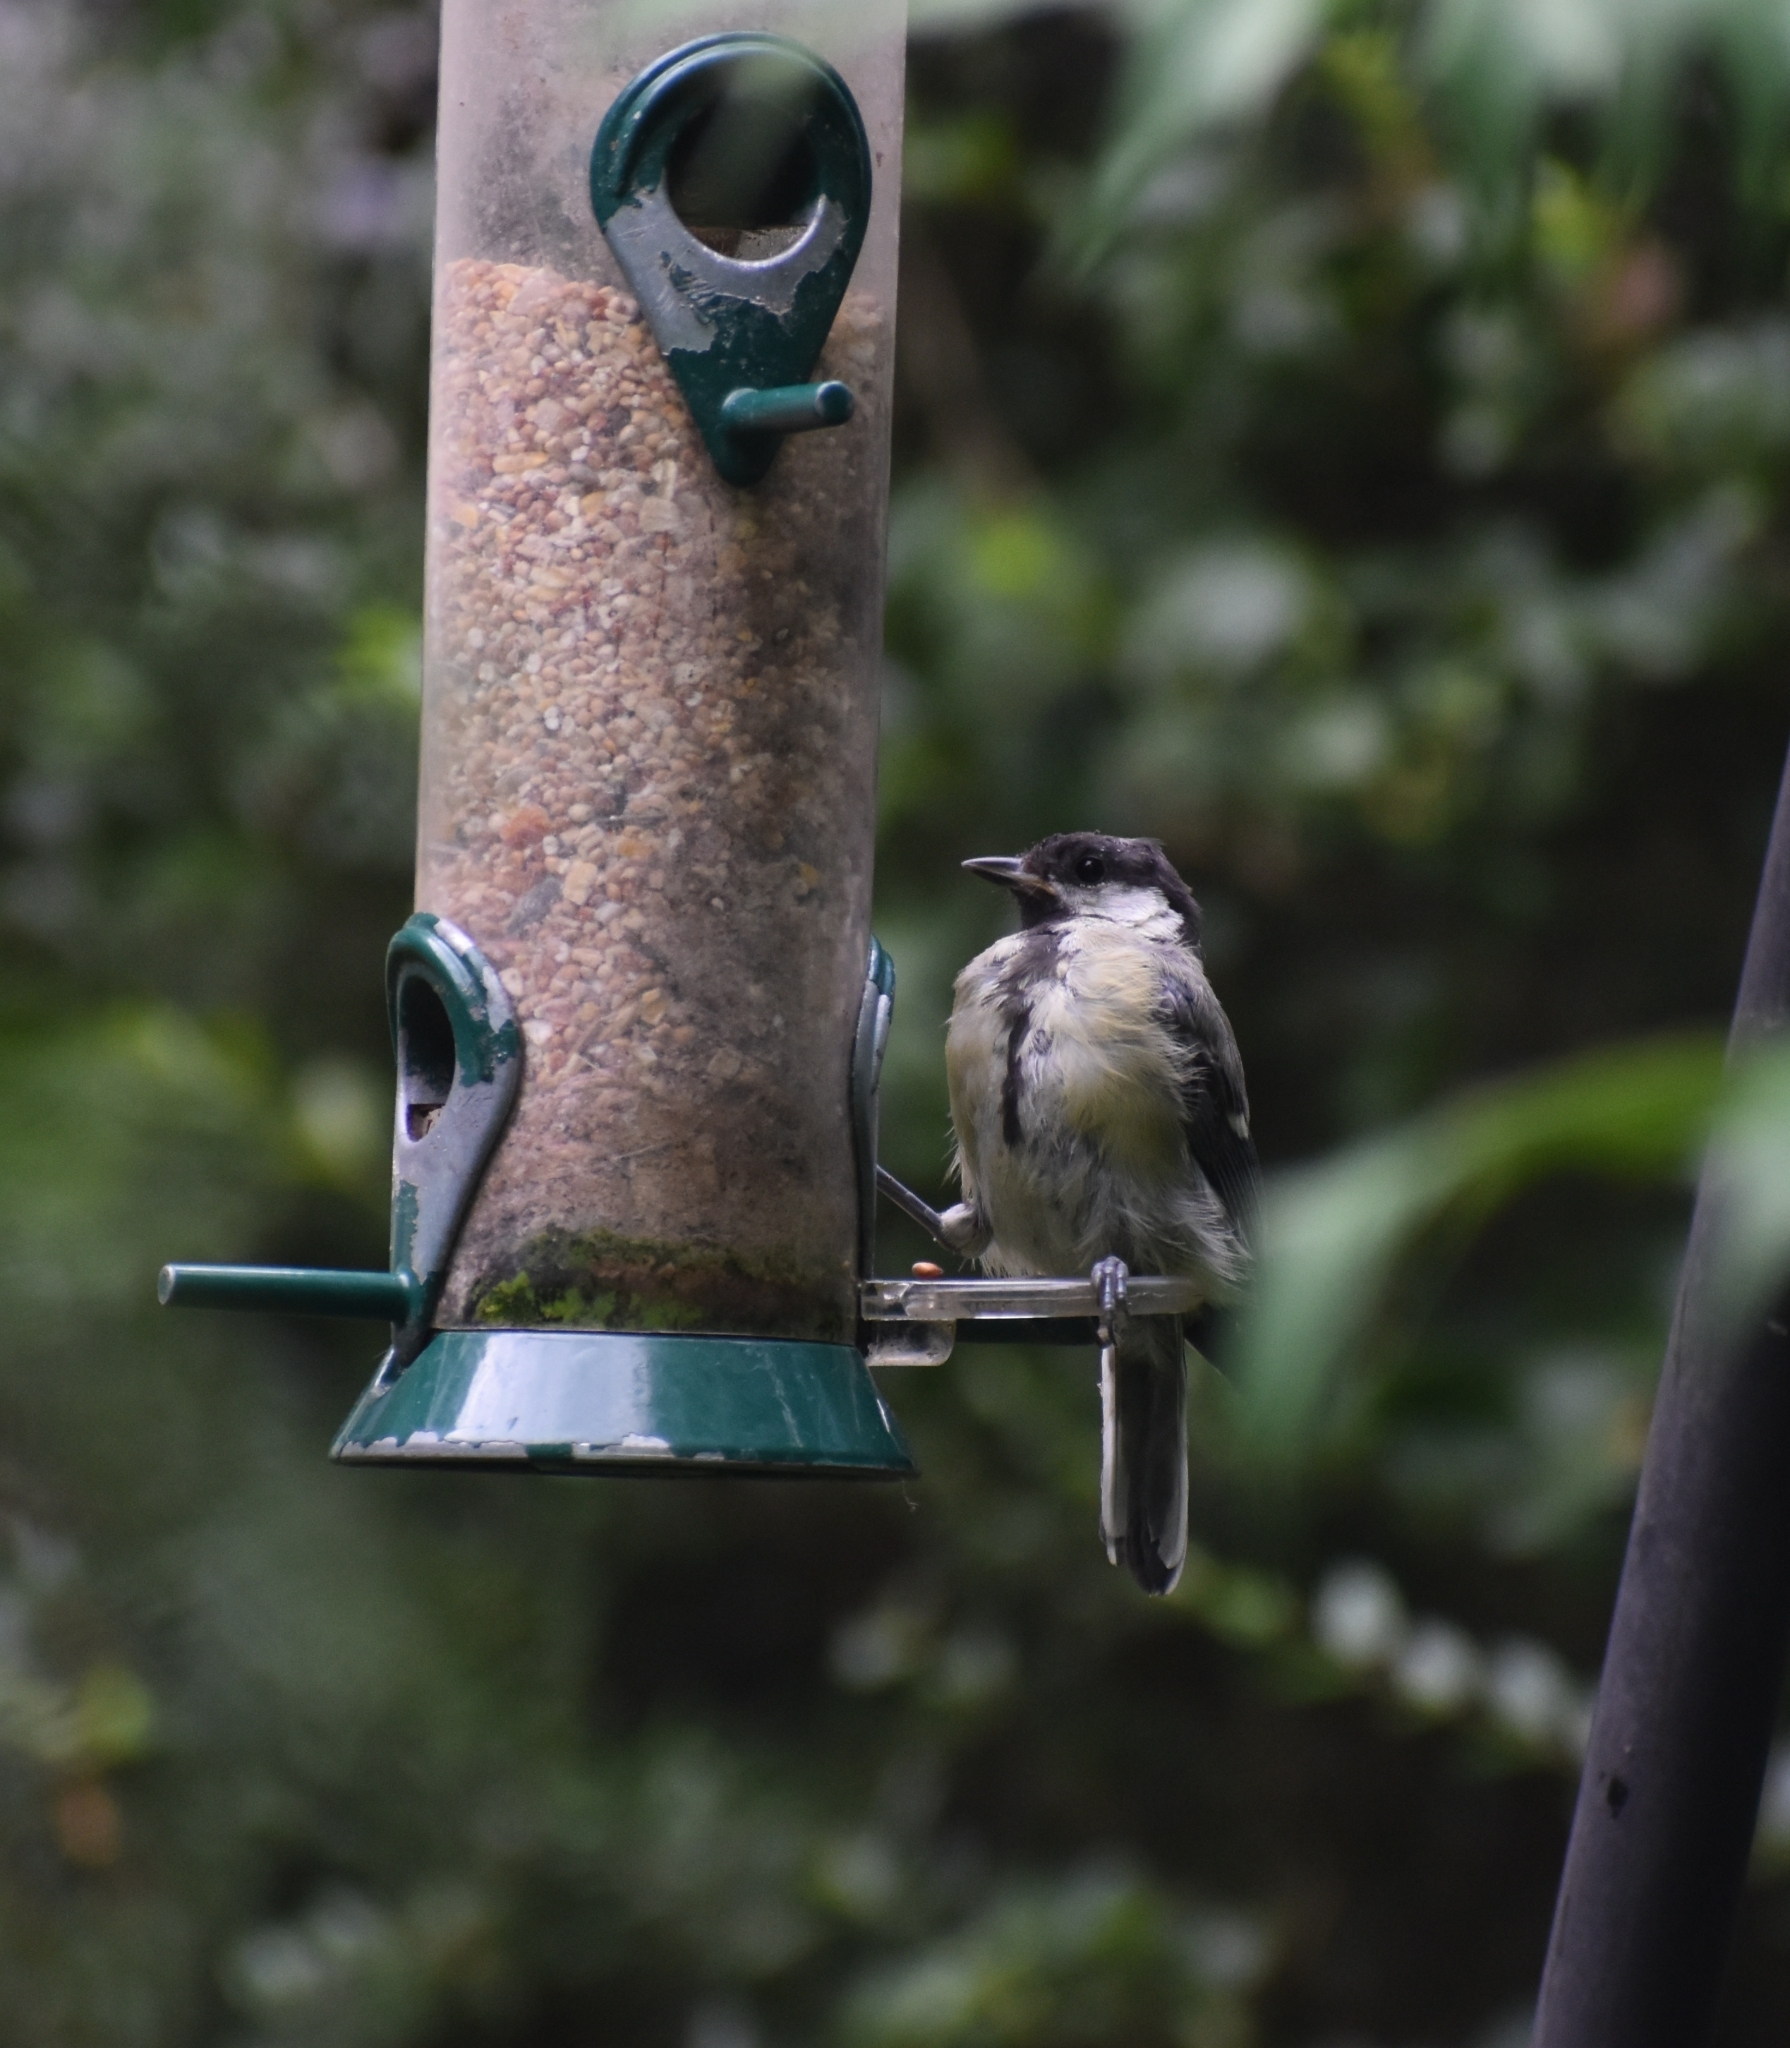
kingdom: Animalia
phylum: Chordata
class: Aves
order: Passeriformes
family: Paridae
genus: Parus
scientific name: Parus major
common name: Great tit
